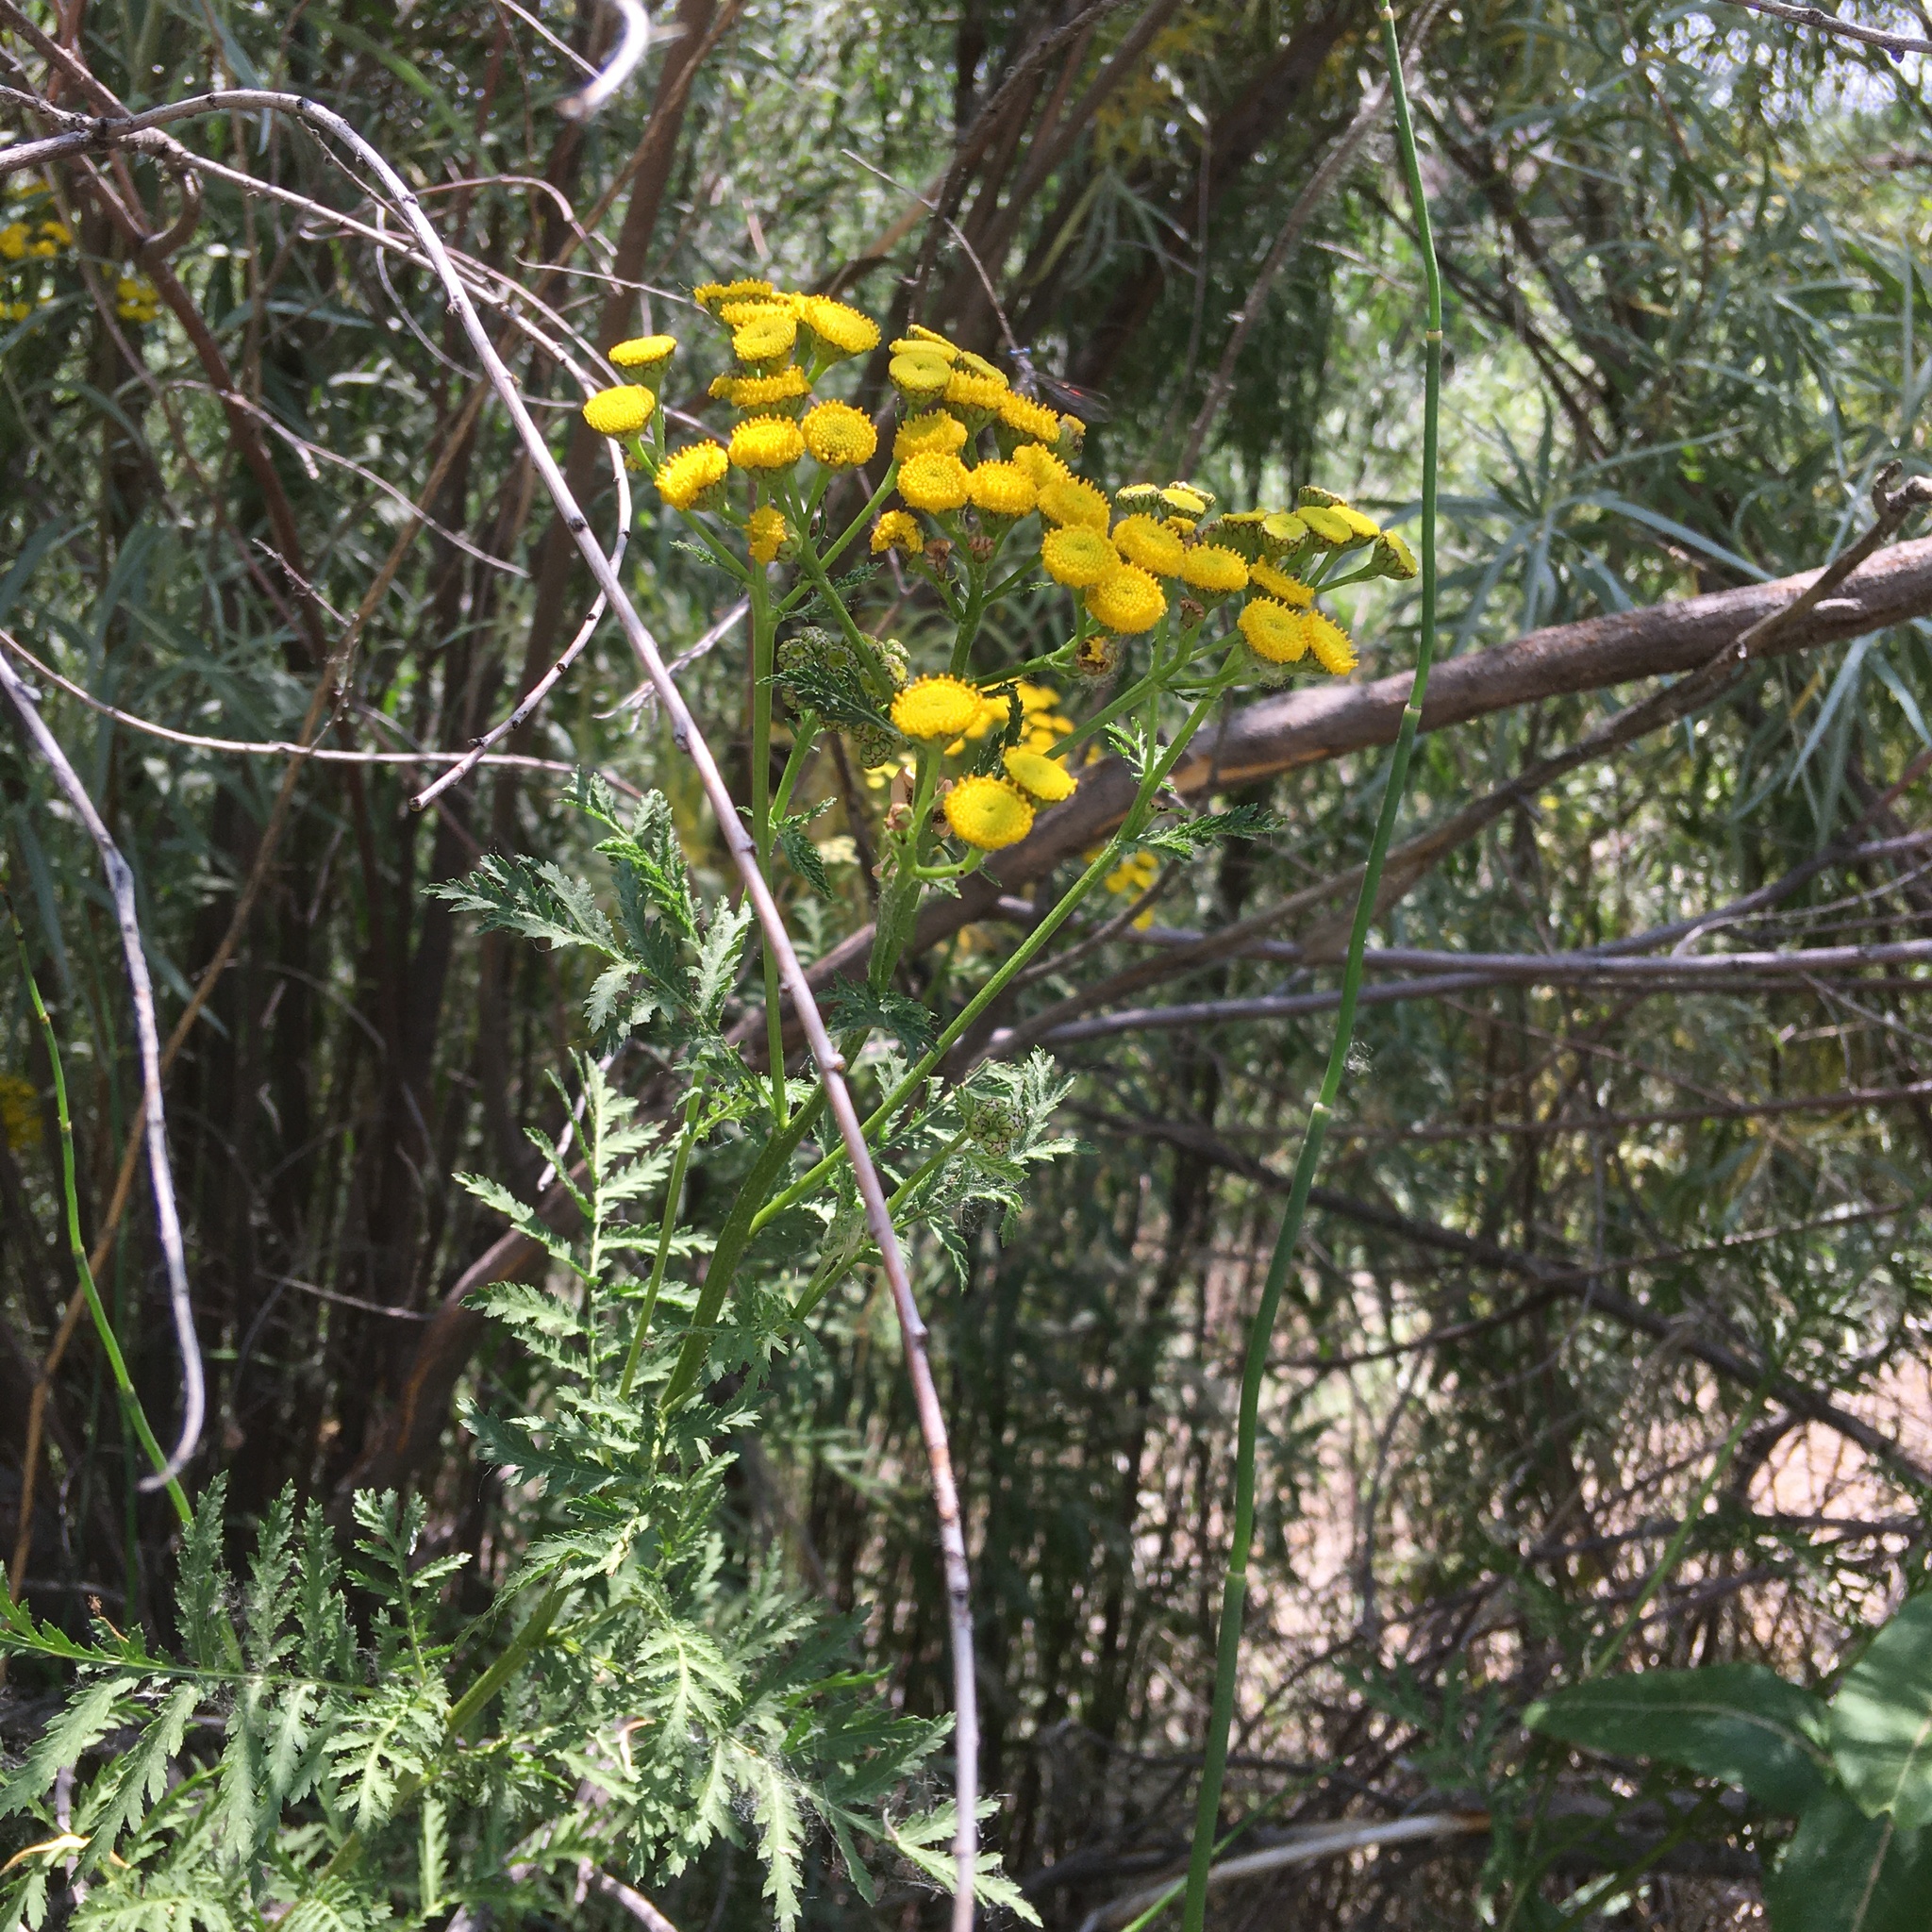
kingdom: Plantae
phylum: Tracheophyta
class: Magnoliopsida
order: Asterales
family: Asteraceae
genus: Tanacetum
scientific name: Tanacetum vulgare
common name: Common tansy
